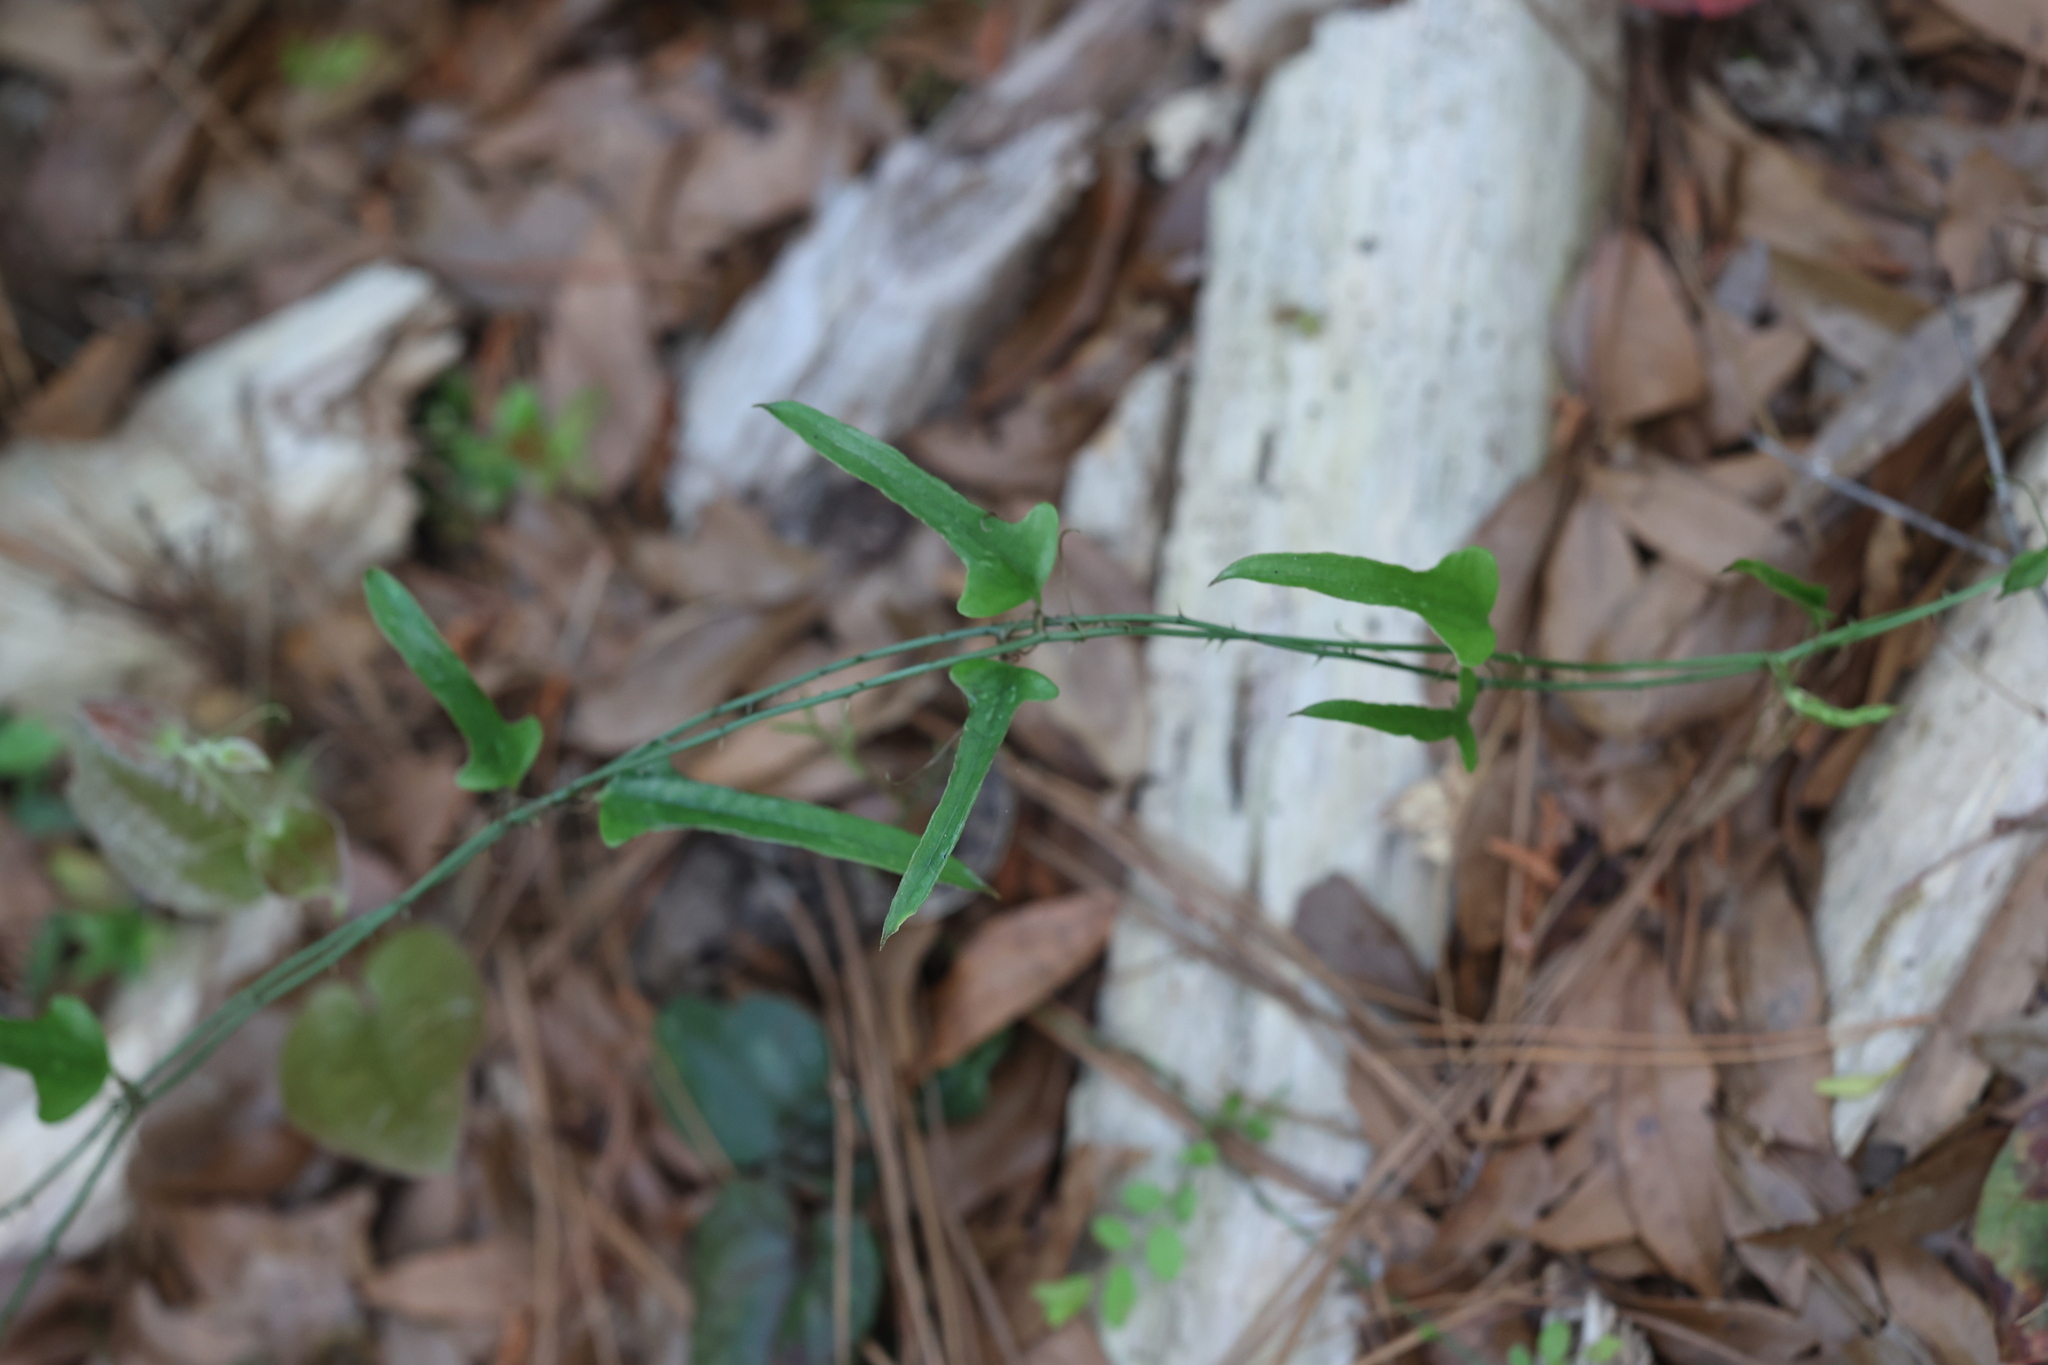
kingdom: Plantae
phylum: Tracheophyta
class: Liliopsida
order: Liliales
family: Smilacaceae
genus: Smilax
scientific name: Smilax bona-nox
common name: Catbrier
